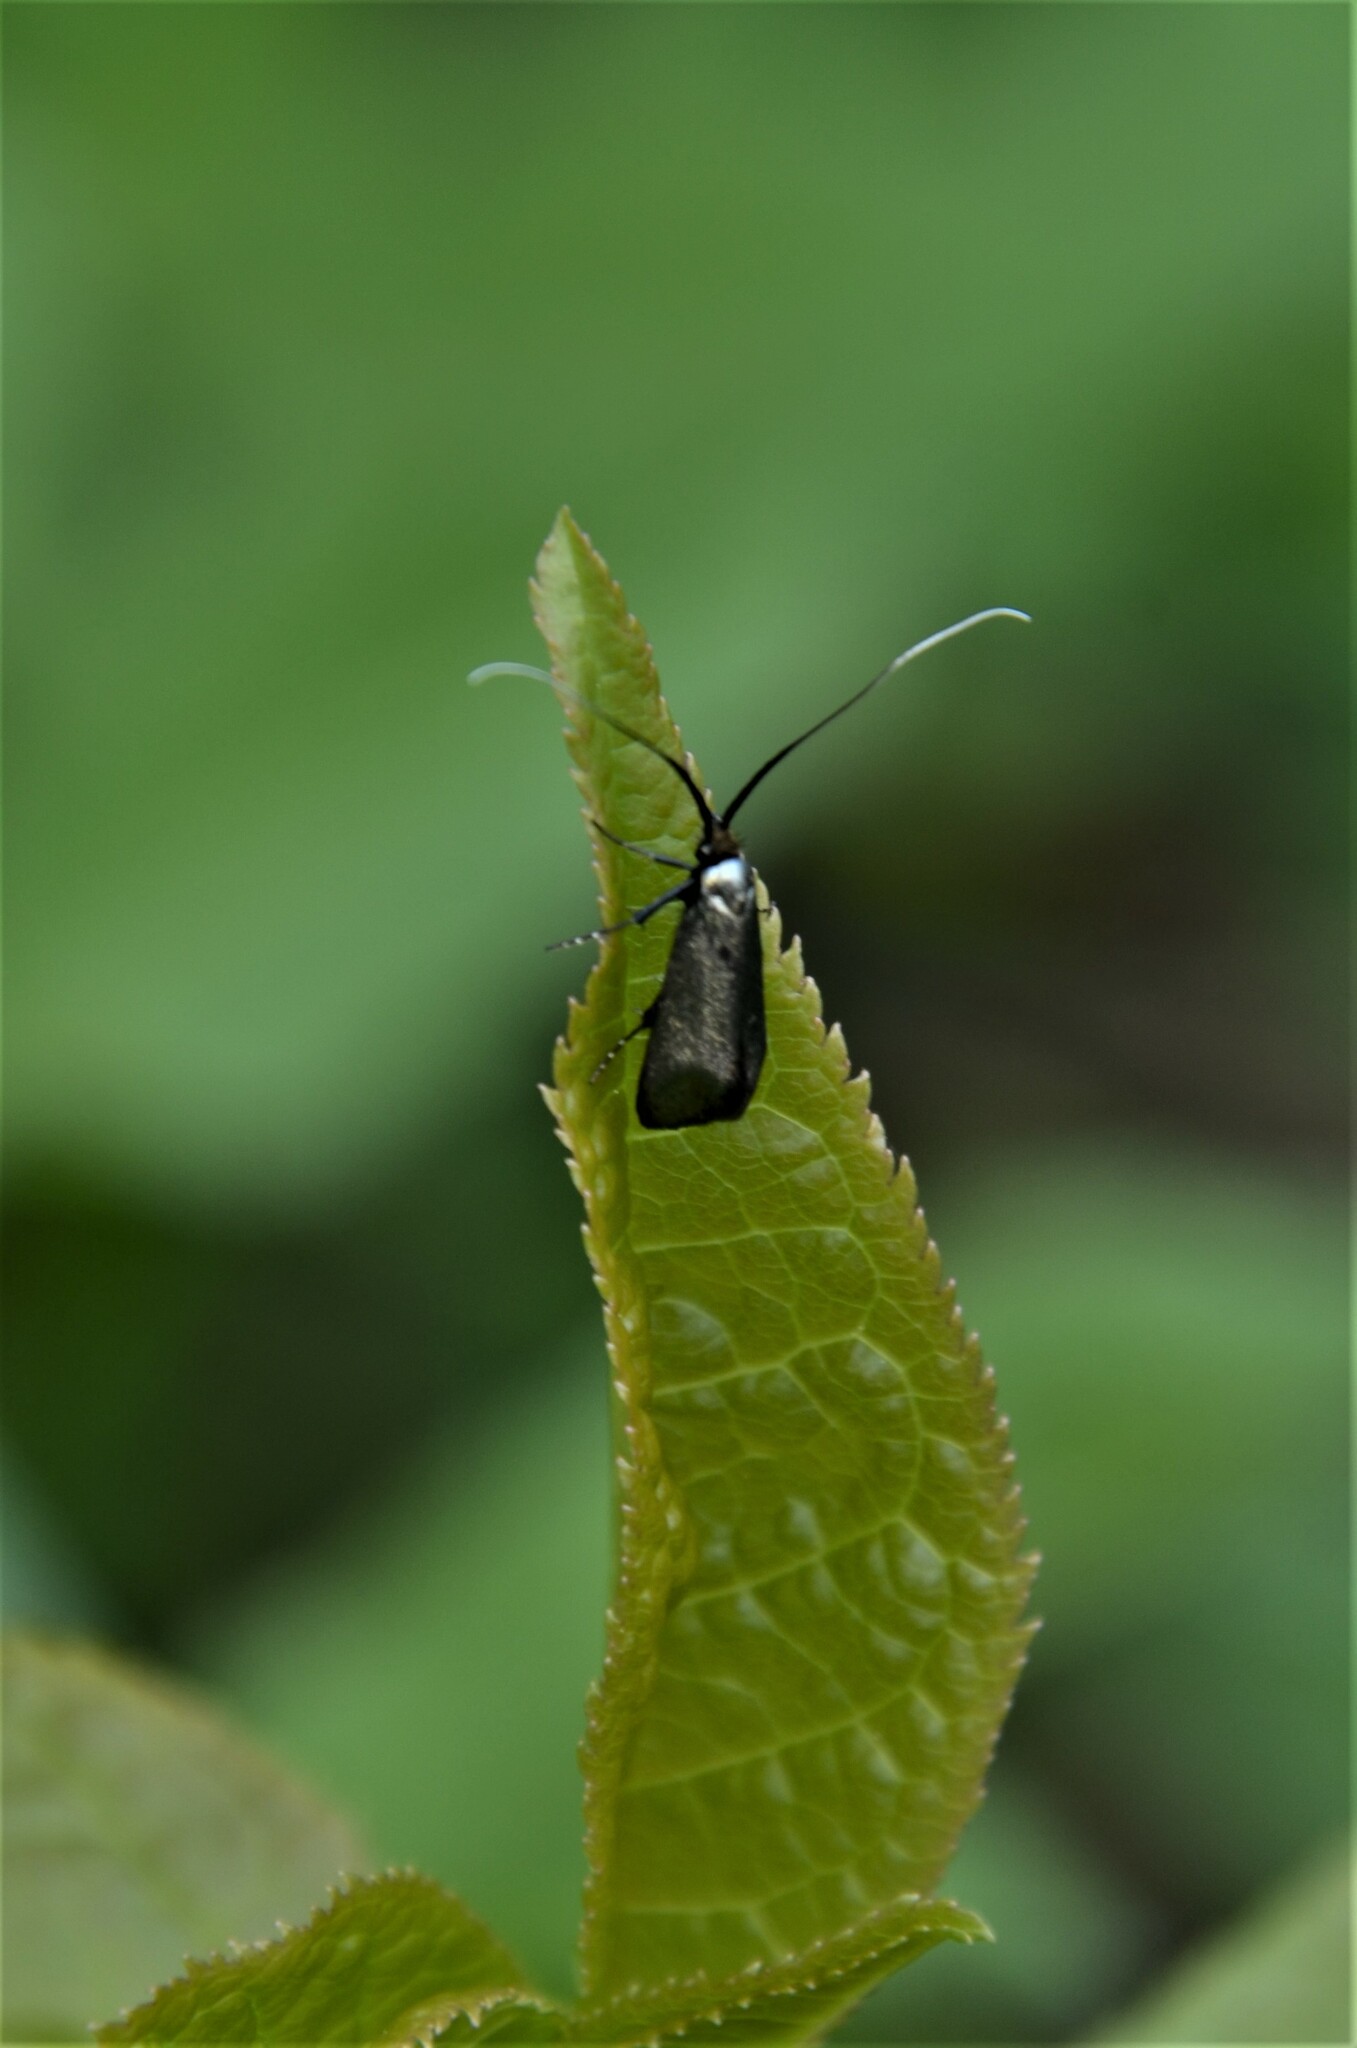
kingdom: Animalia
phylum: Arthropoda
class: Insecta
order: Lepidoptera
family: Adelidae
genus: Adela
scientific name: Adela viridella
